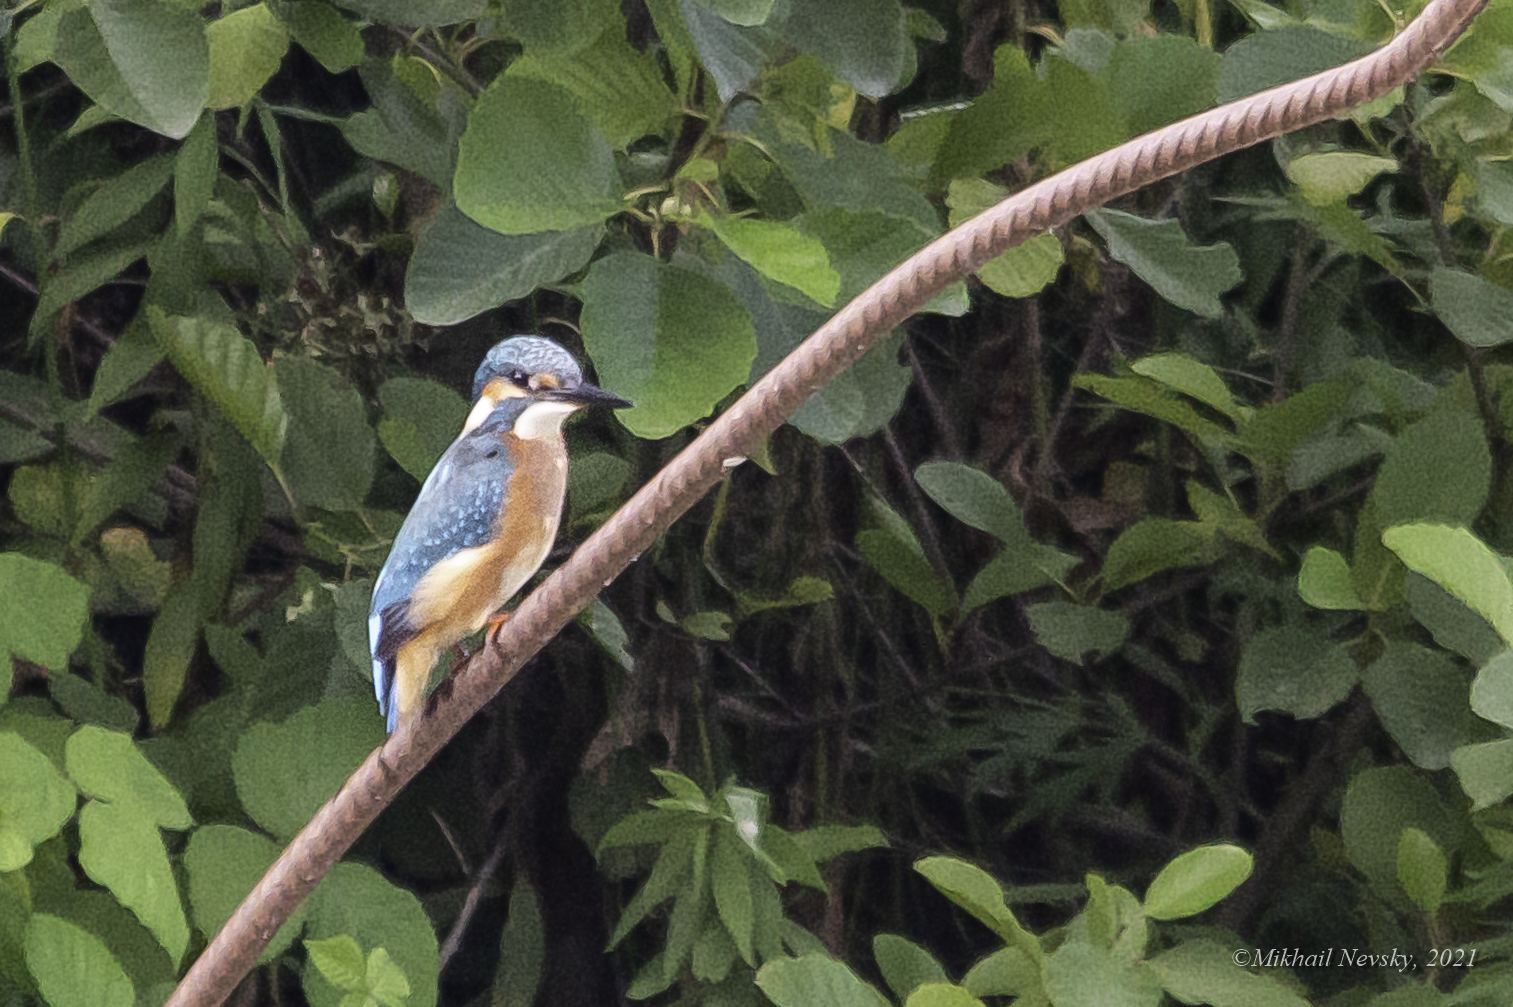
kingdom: Animalia
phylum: Chordata
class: Aves
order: Coraciiformes
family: Alcedinidae
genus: Alcedo
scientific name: Alcedo atthis
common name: Common kingfisher
